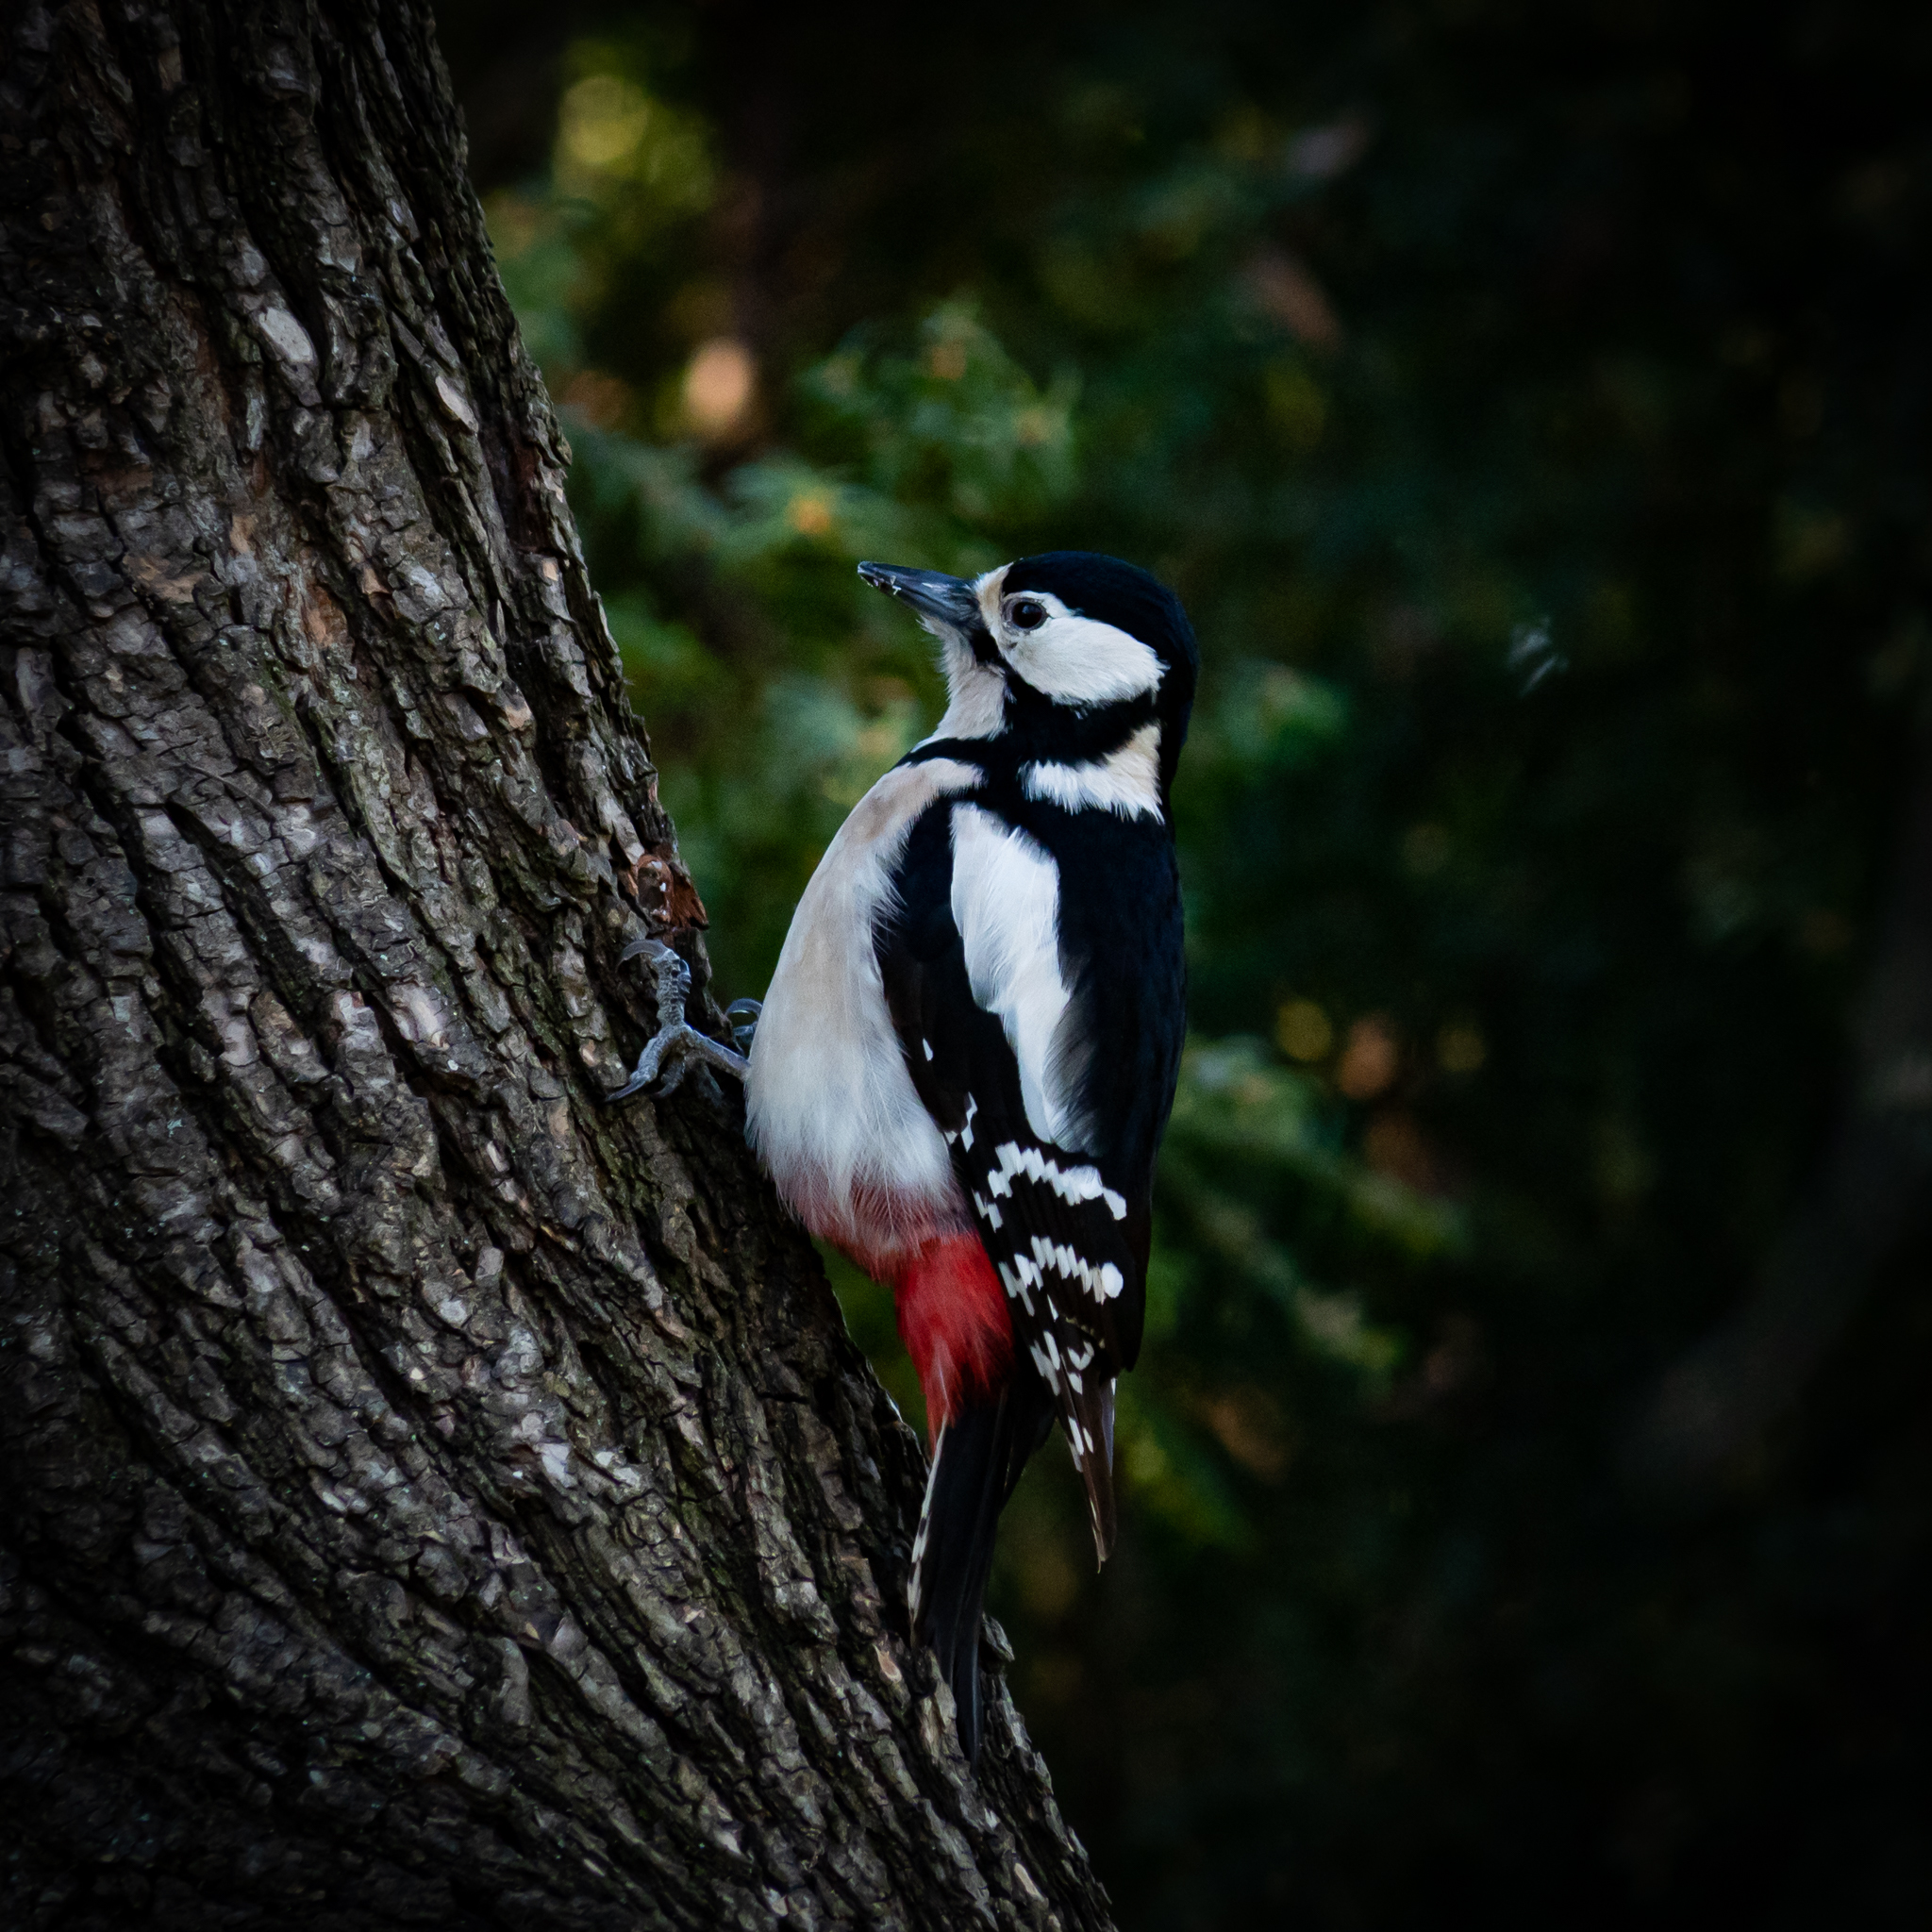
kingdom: Animalia
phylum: Chordata
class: Aves
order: Piciformes
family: Picidae
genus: Dendrocopos
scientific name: Dendrocopos major
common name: Great spotted woodpecker
